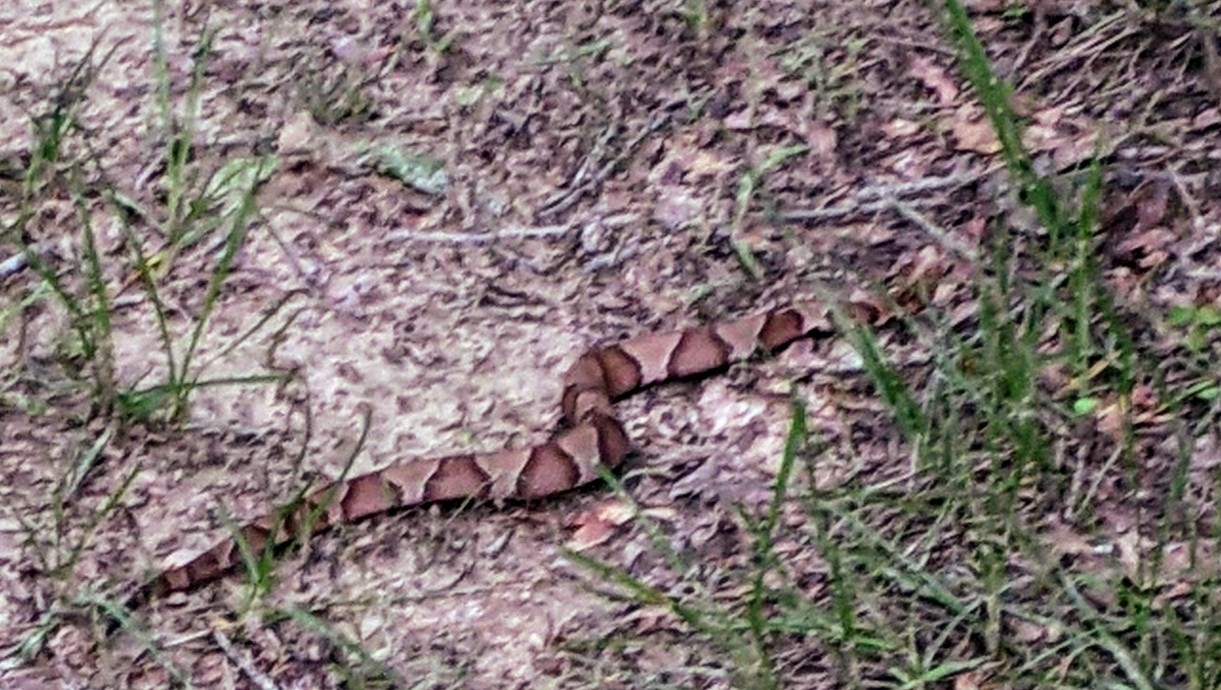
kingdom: Animalia
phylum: Chordata
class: Squamata
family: Viperidae
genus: Agkistrodon
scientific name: Agkistrodon contortrix
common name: Northern copperhead
